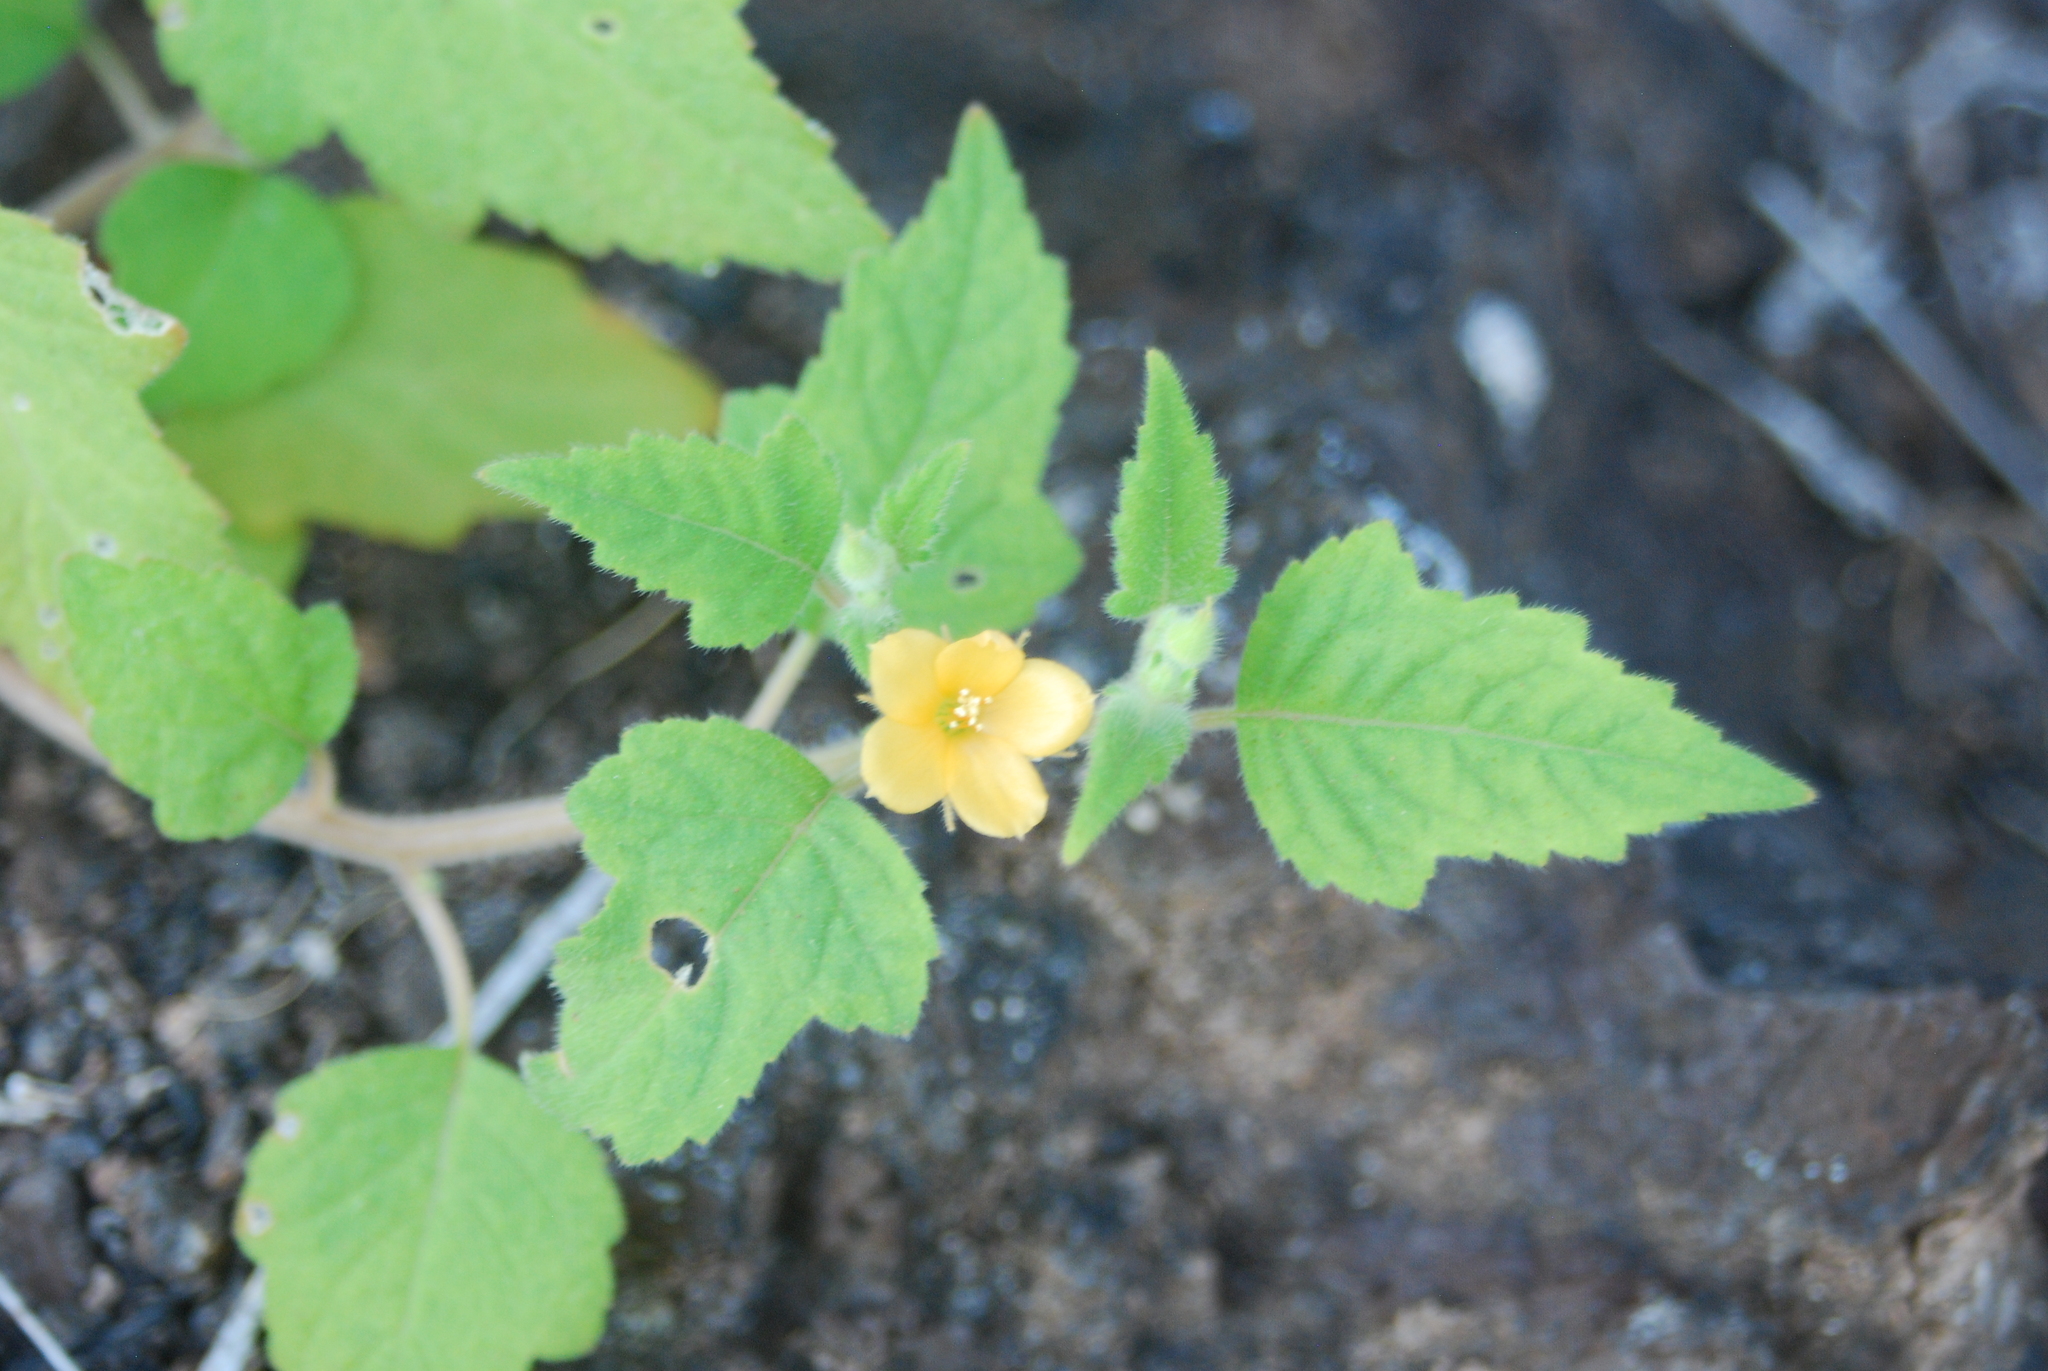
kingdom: Plantae
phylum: Tracheophyta
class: Magnoliopsida
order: Cornales
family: Loasaceae
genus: Mentzelia
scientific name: Mentzelia aspera
